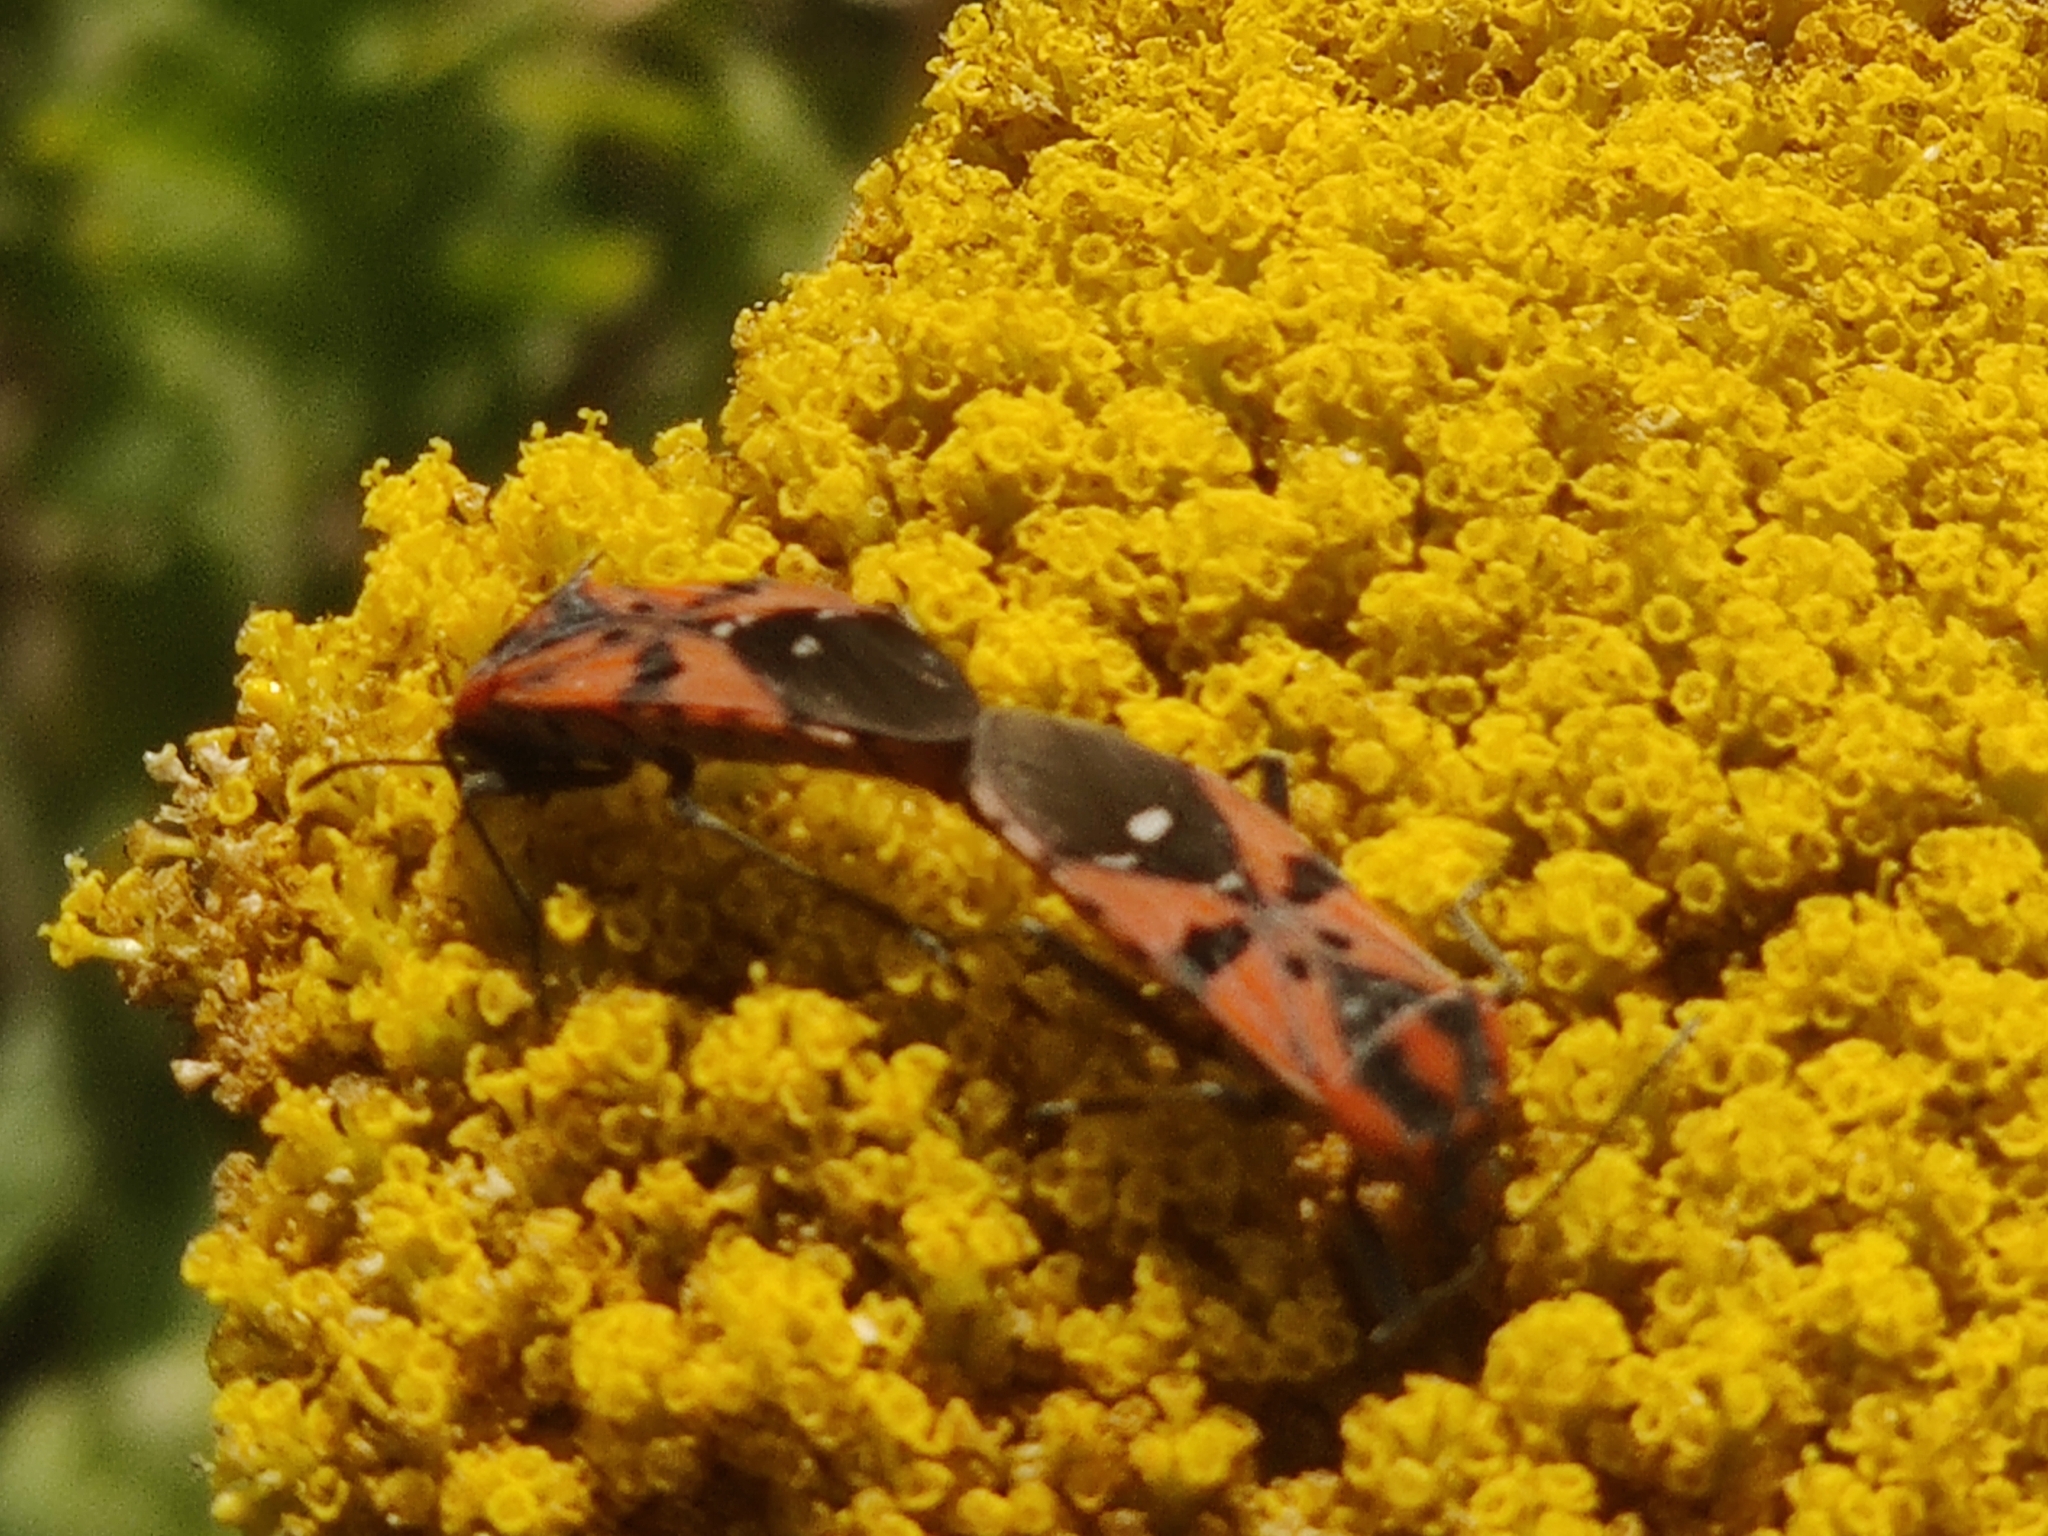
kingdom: Animalia
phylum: Arthropoda
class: Insecta
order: Hemiptera
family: Lygaeidae
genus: Spilostethus
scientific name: Spilostethus pandurus
